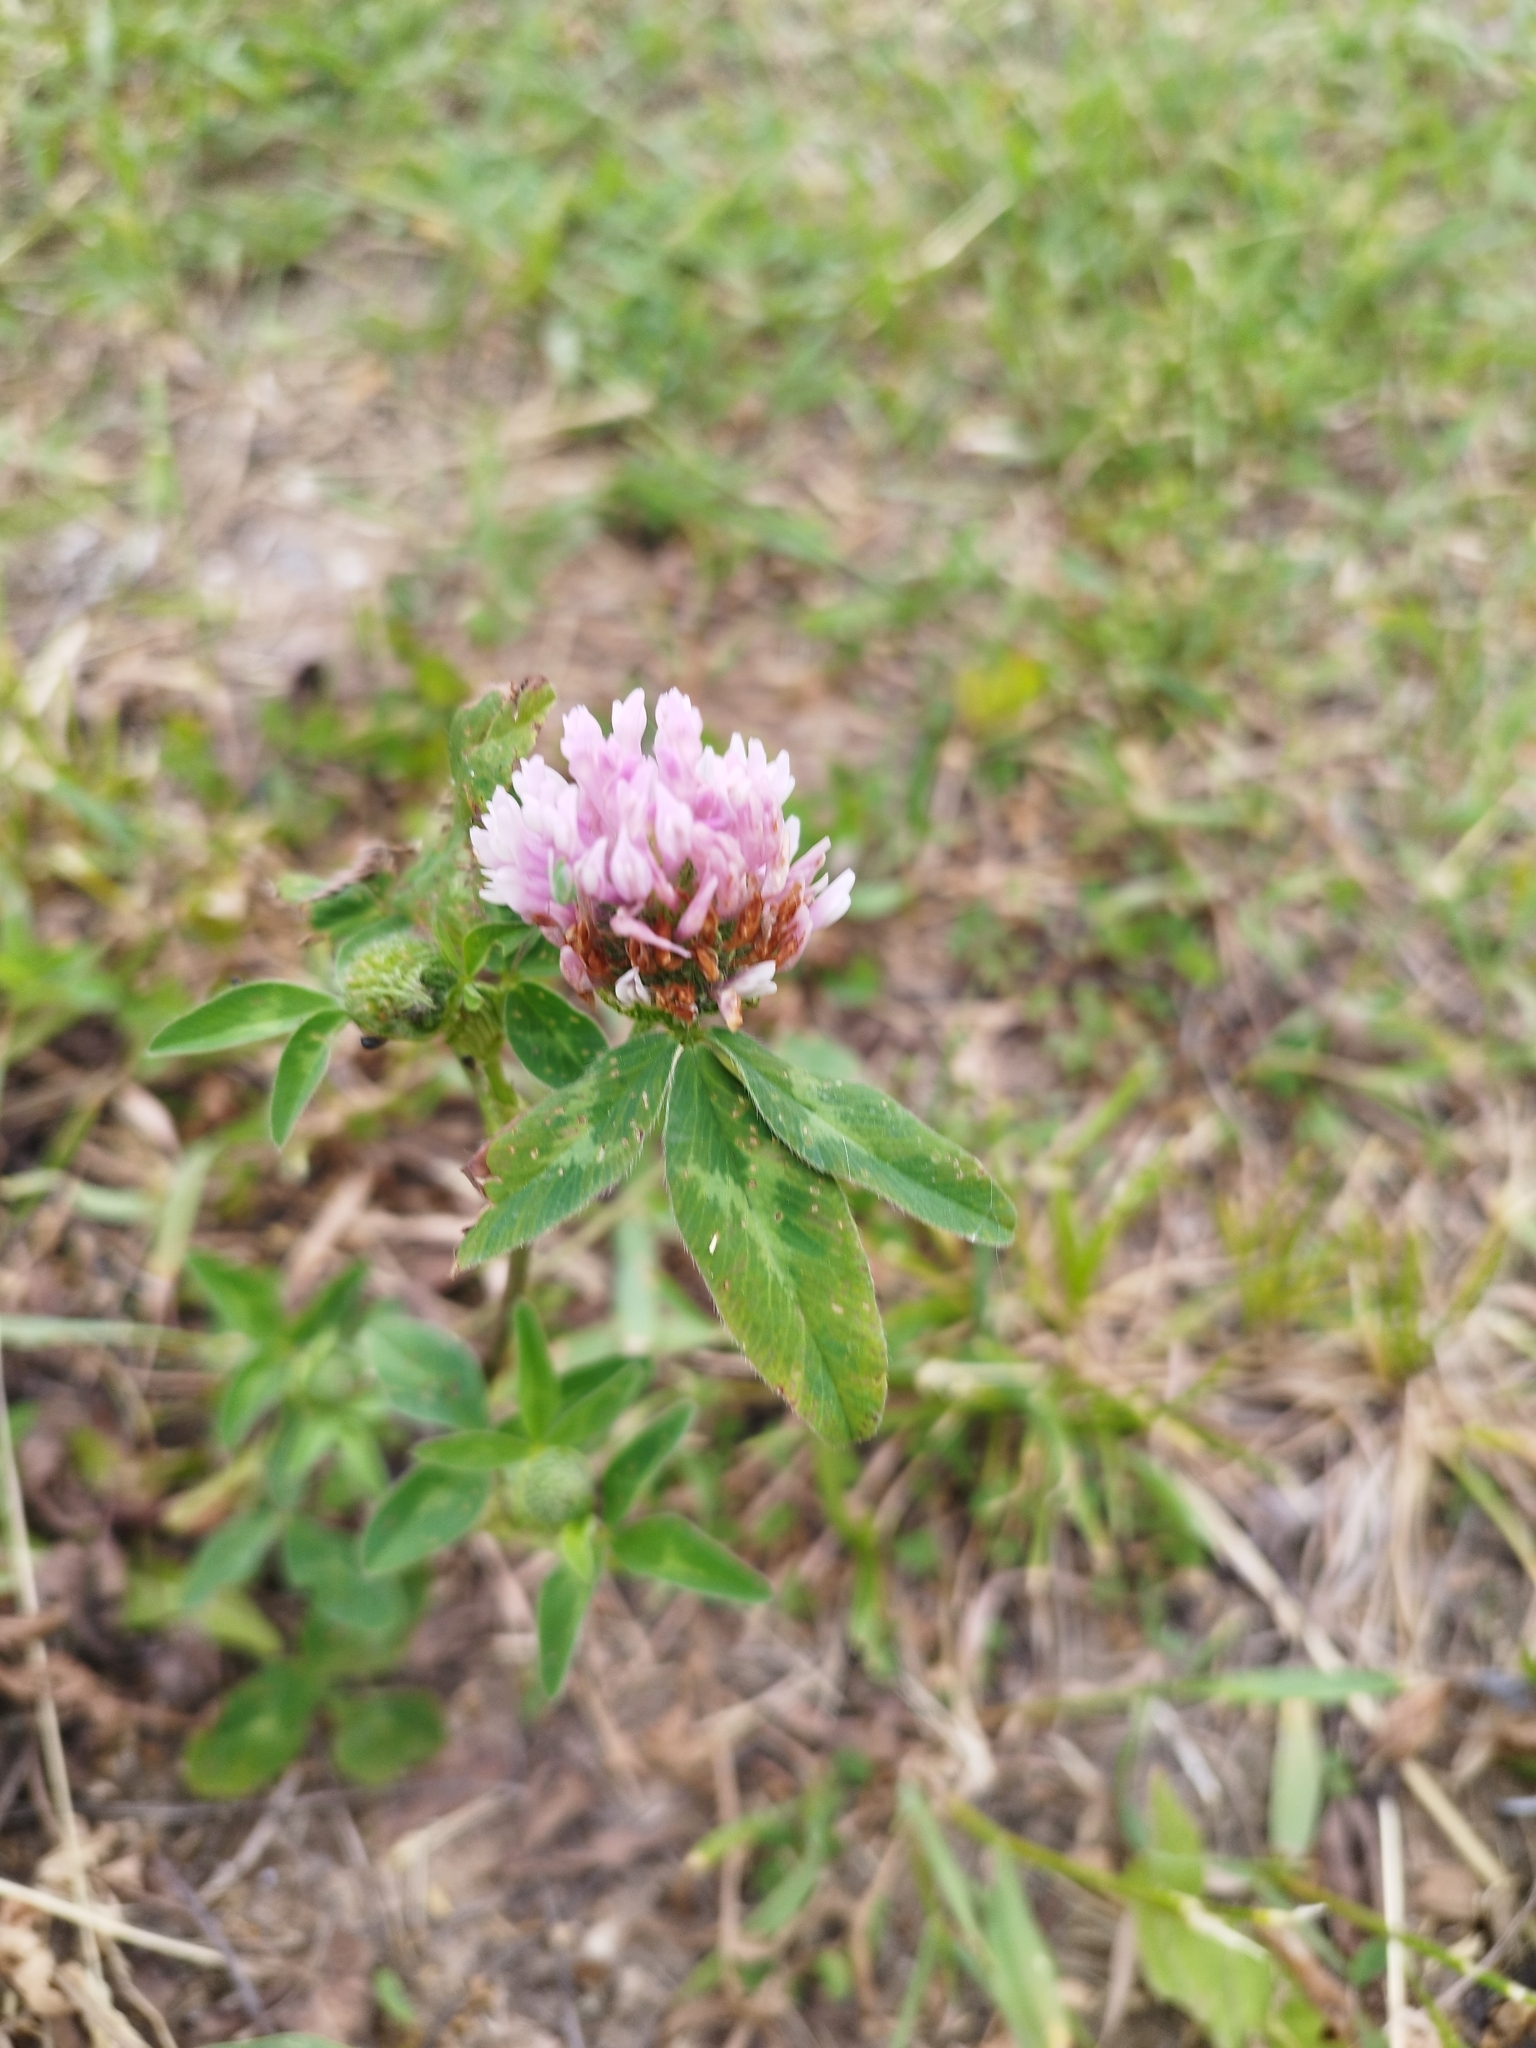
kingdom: Plantae
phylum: Tracheophyta
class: Magnoliopsida
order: Fabales
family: Fabaceae
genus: Trifolium
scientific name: Trifolium pratense
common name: Red clover
